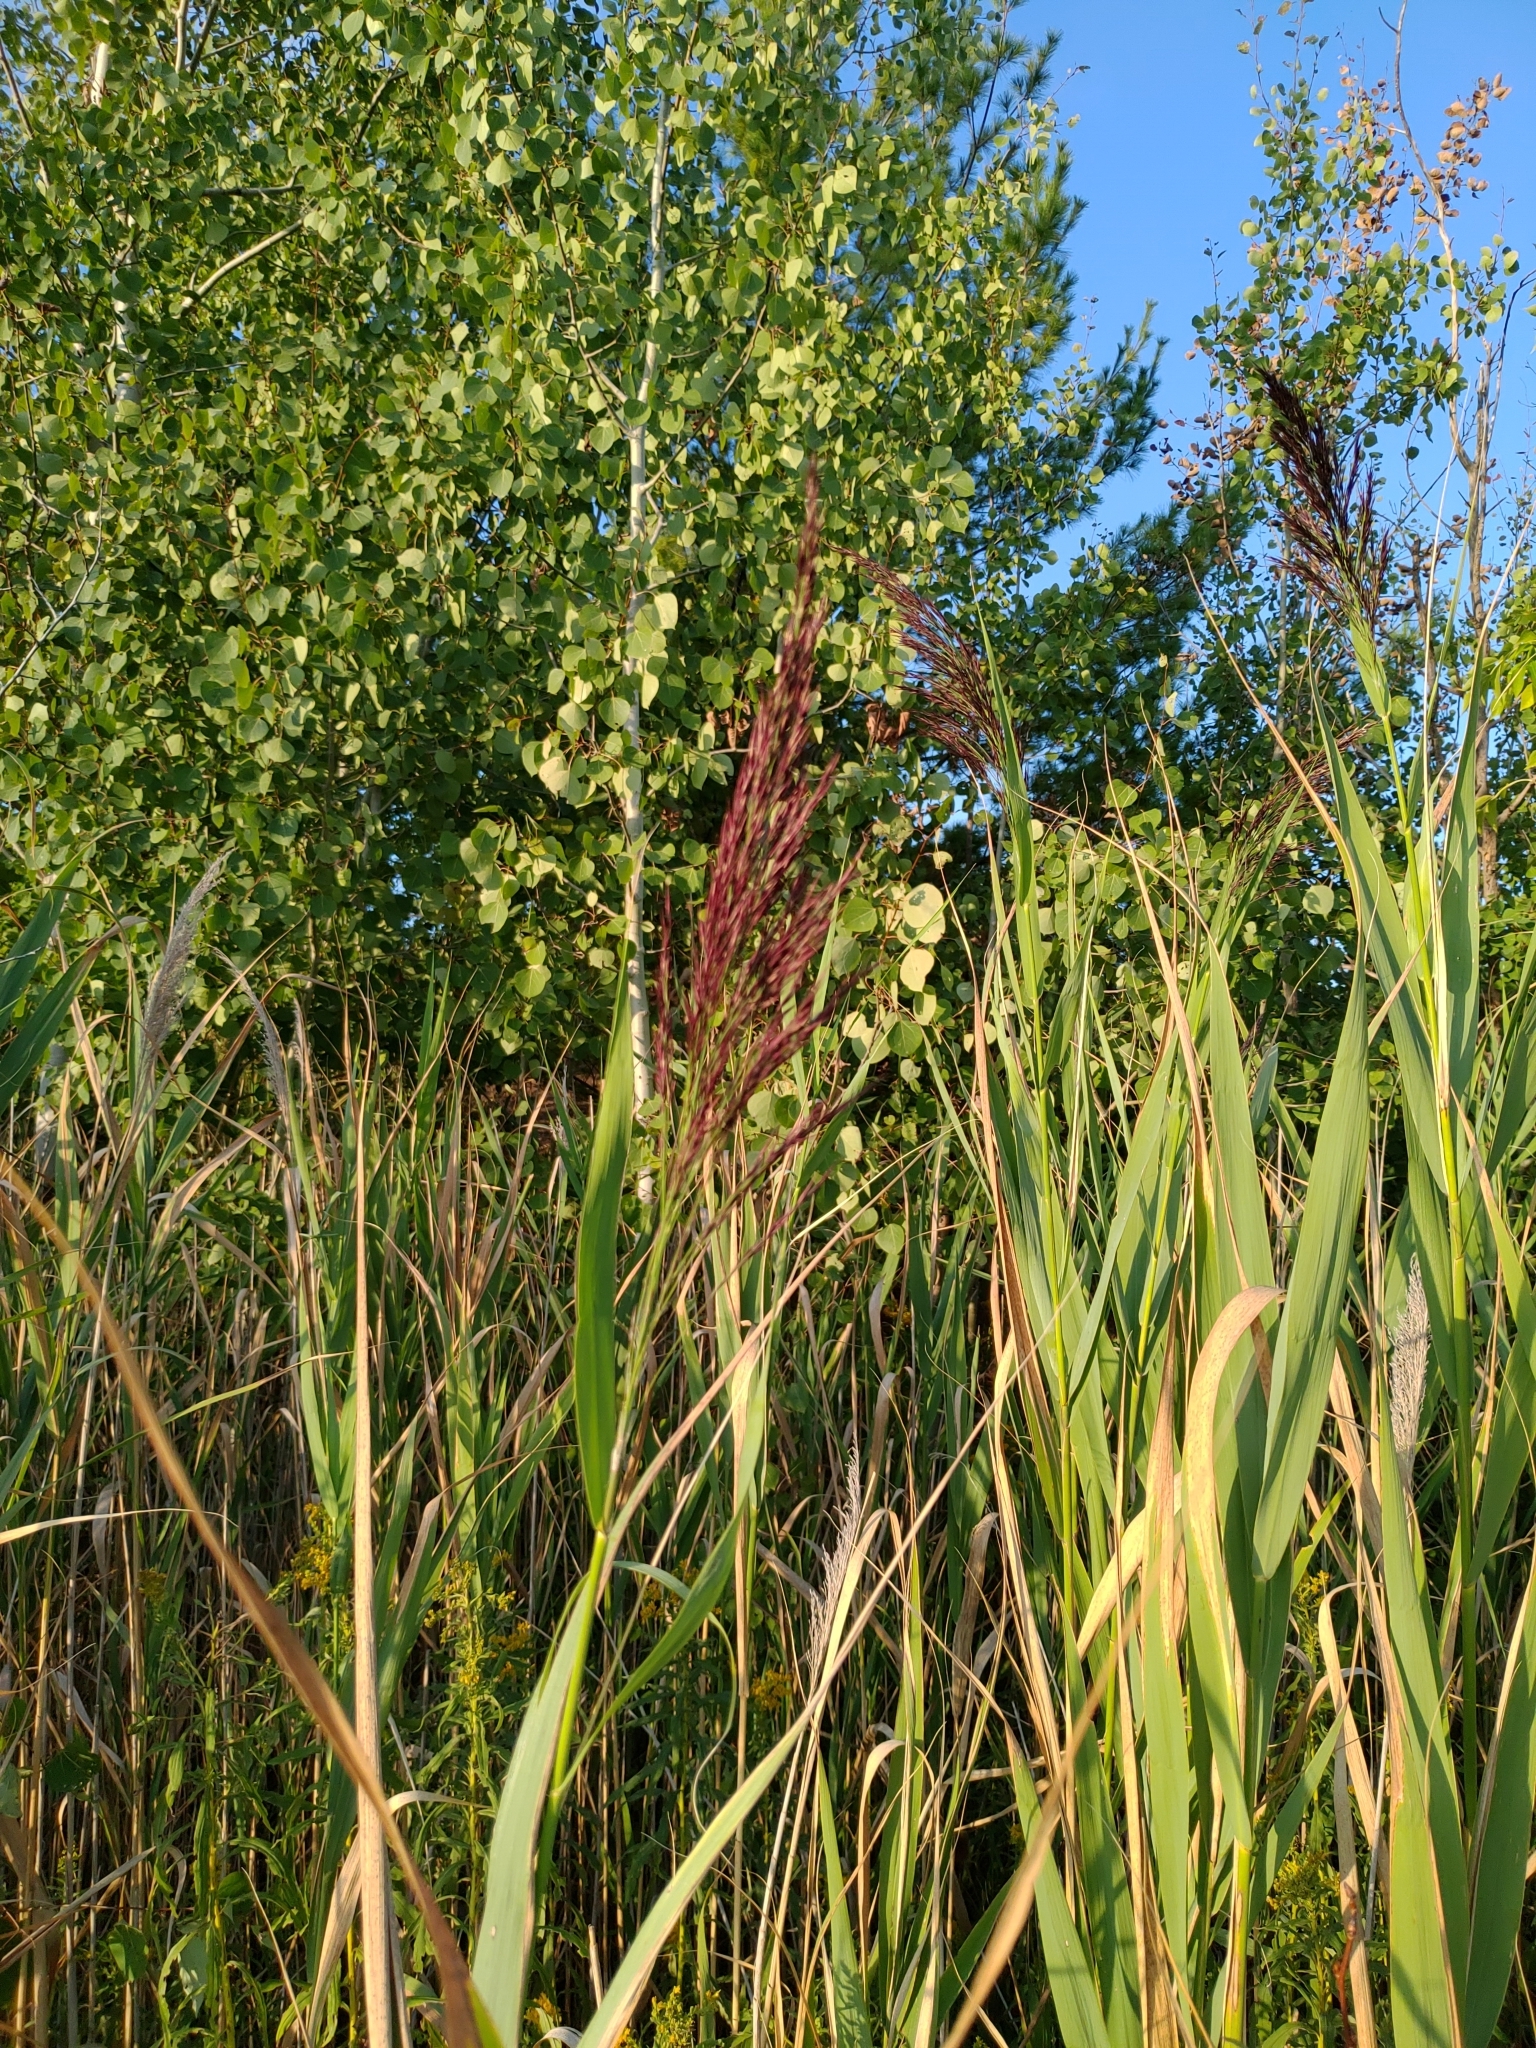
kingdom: Plantae
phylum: Tracheophyta
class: Liliopsida
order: Poales
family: Poaceae
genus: Phragmites
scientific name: Phragmites australis
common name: Common reed
